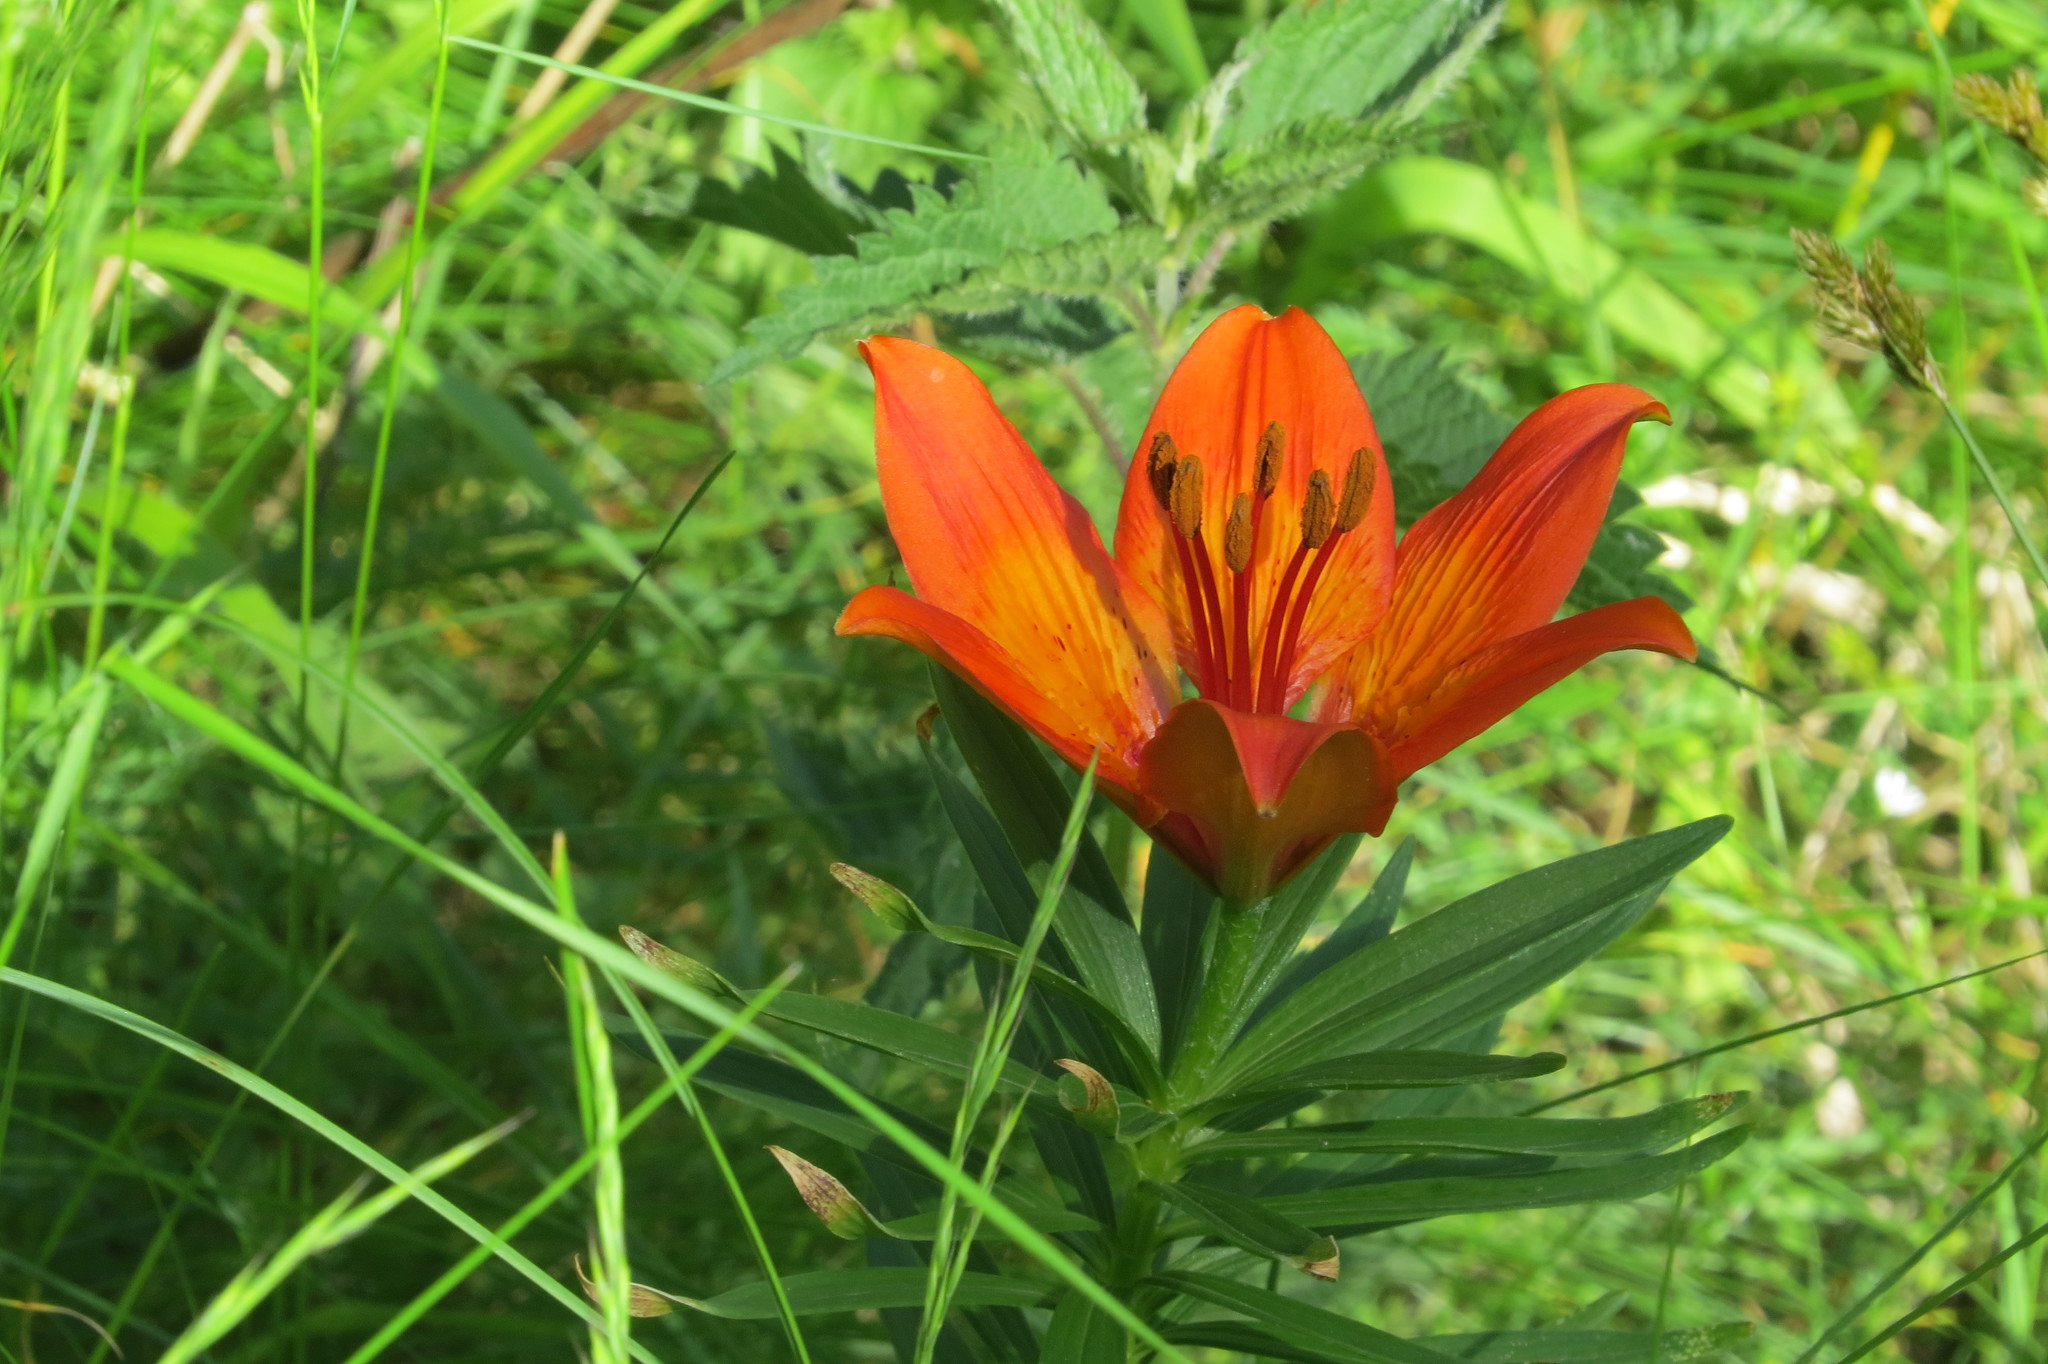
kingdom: Plantae
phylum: Tracheophyta
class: Liliopsida
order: Liliales
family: Liliaceae
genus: Lilium
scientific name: Lilium bulbiferum
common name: Orange lily
